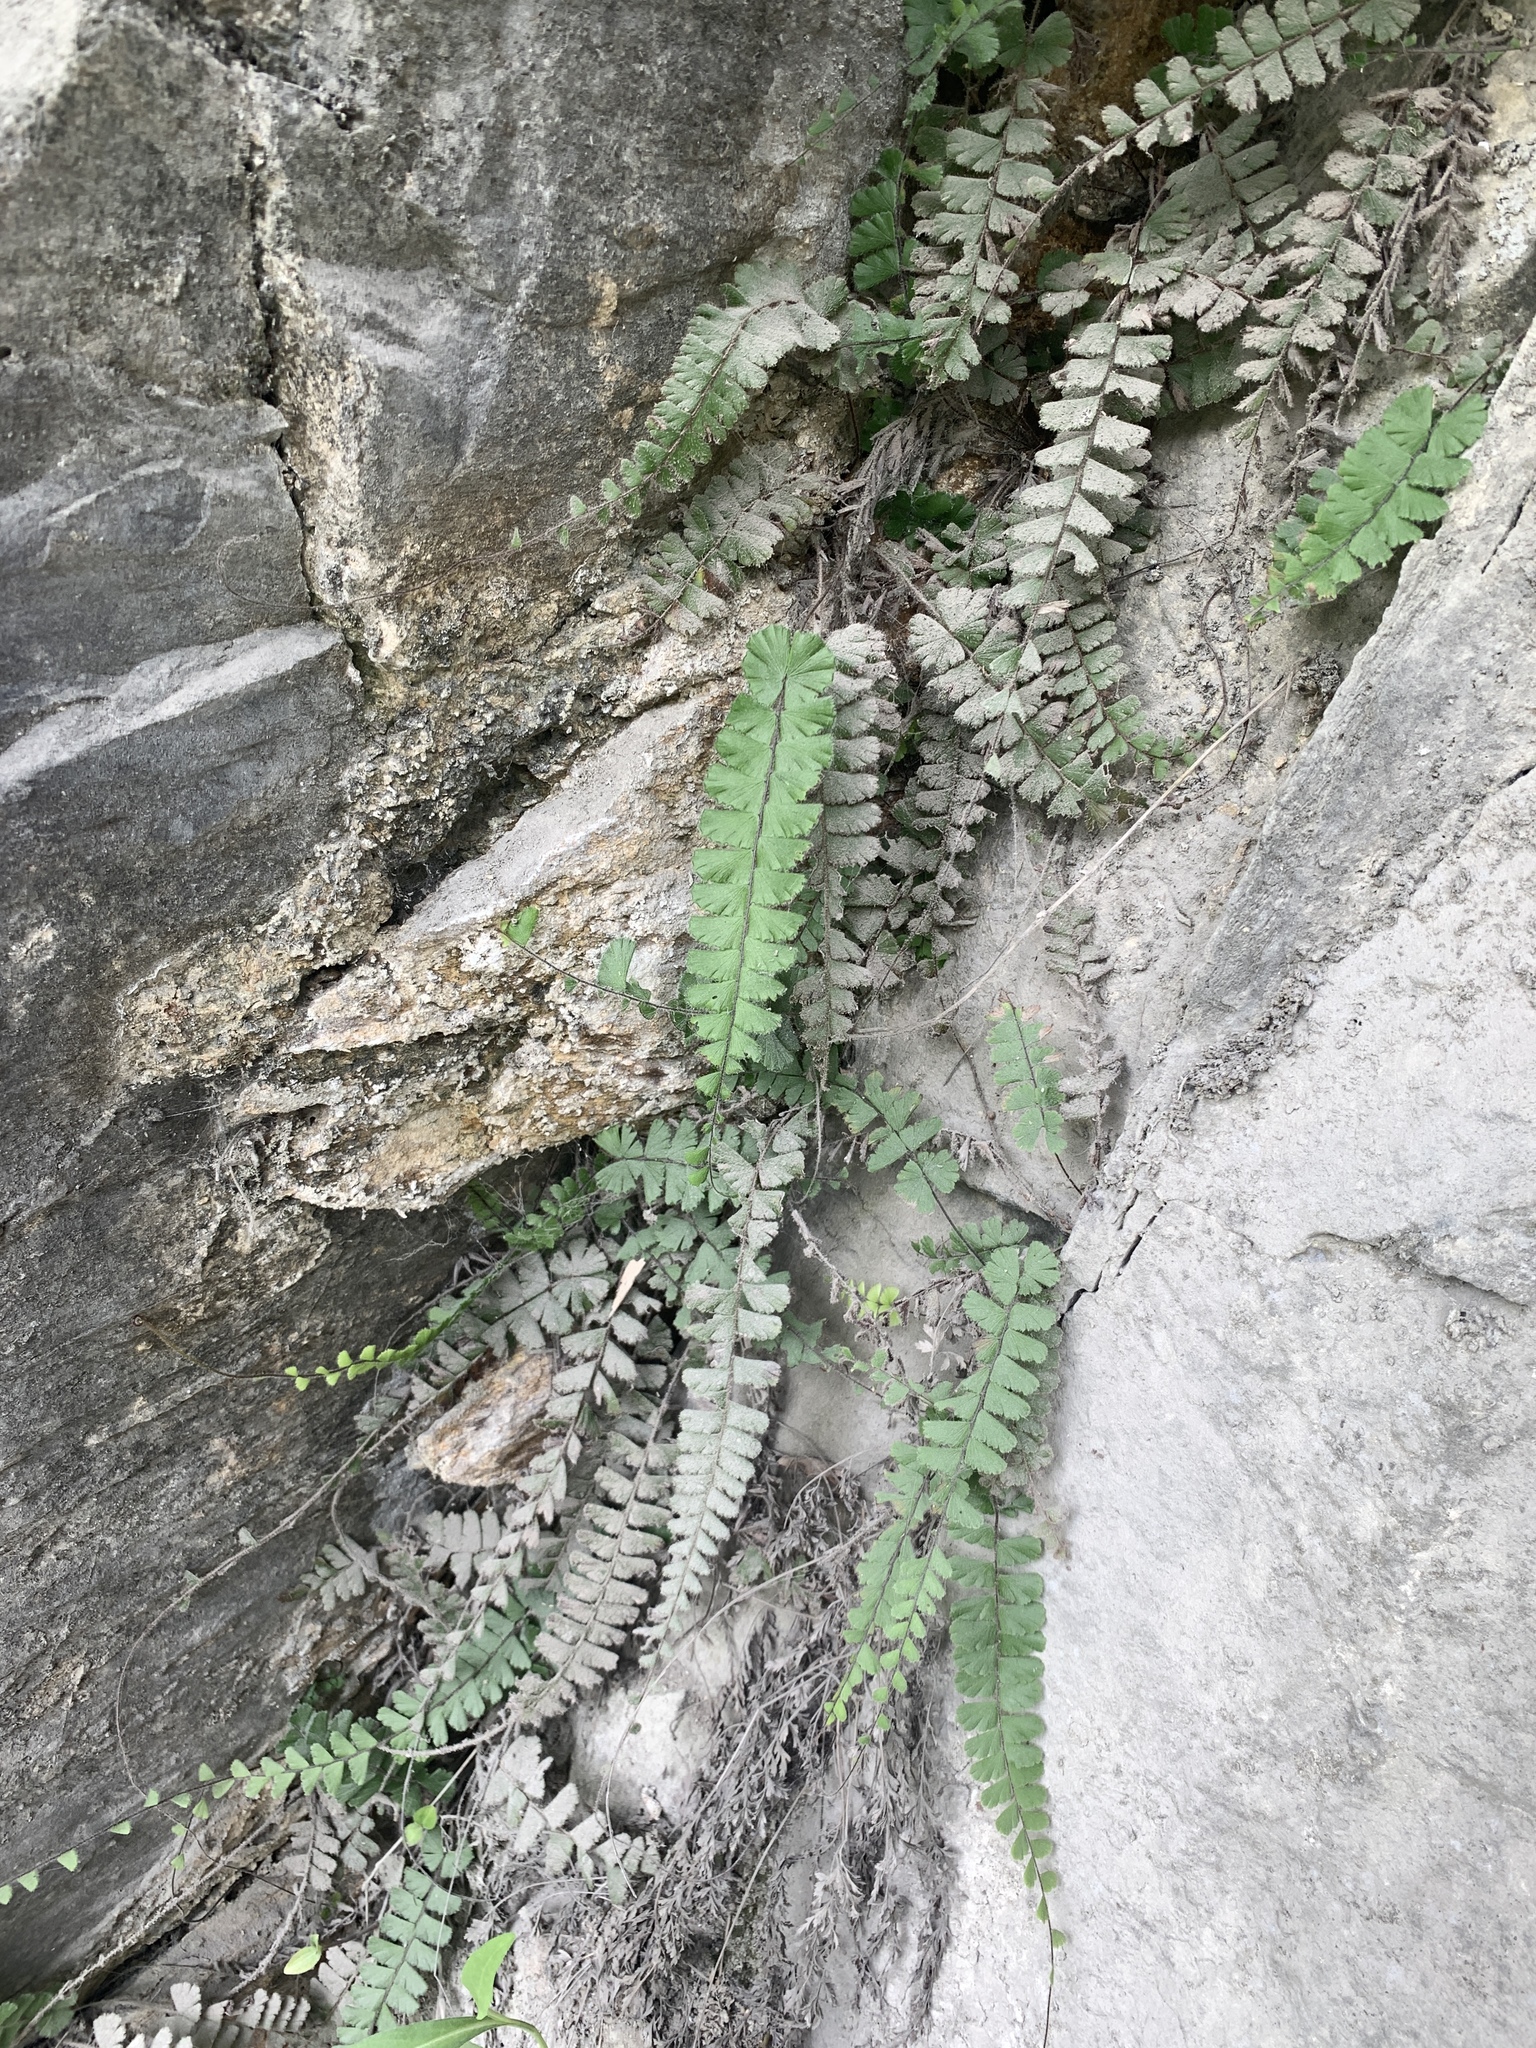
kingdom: Plantae
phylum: Tracheophyta
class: Polypodiopsida
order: Polypodiales
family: Pteridaceae
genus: Adiantum
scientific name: Adiantum ciliatum
